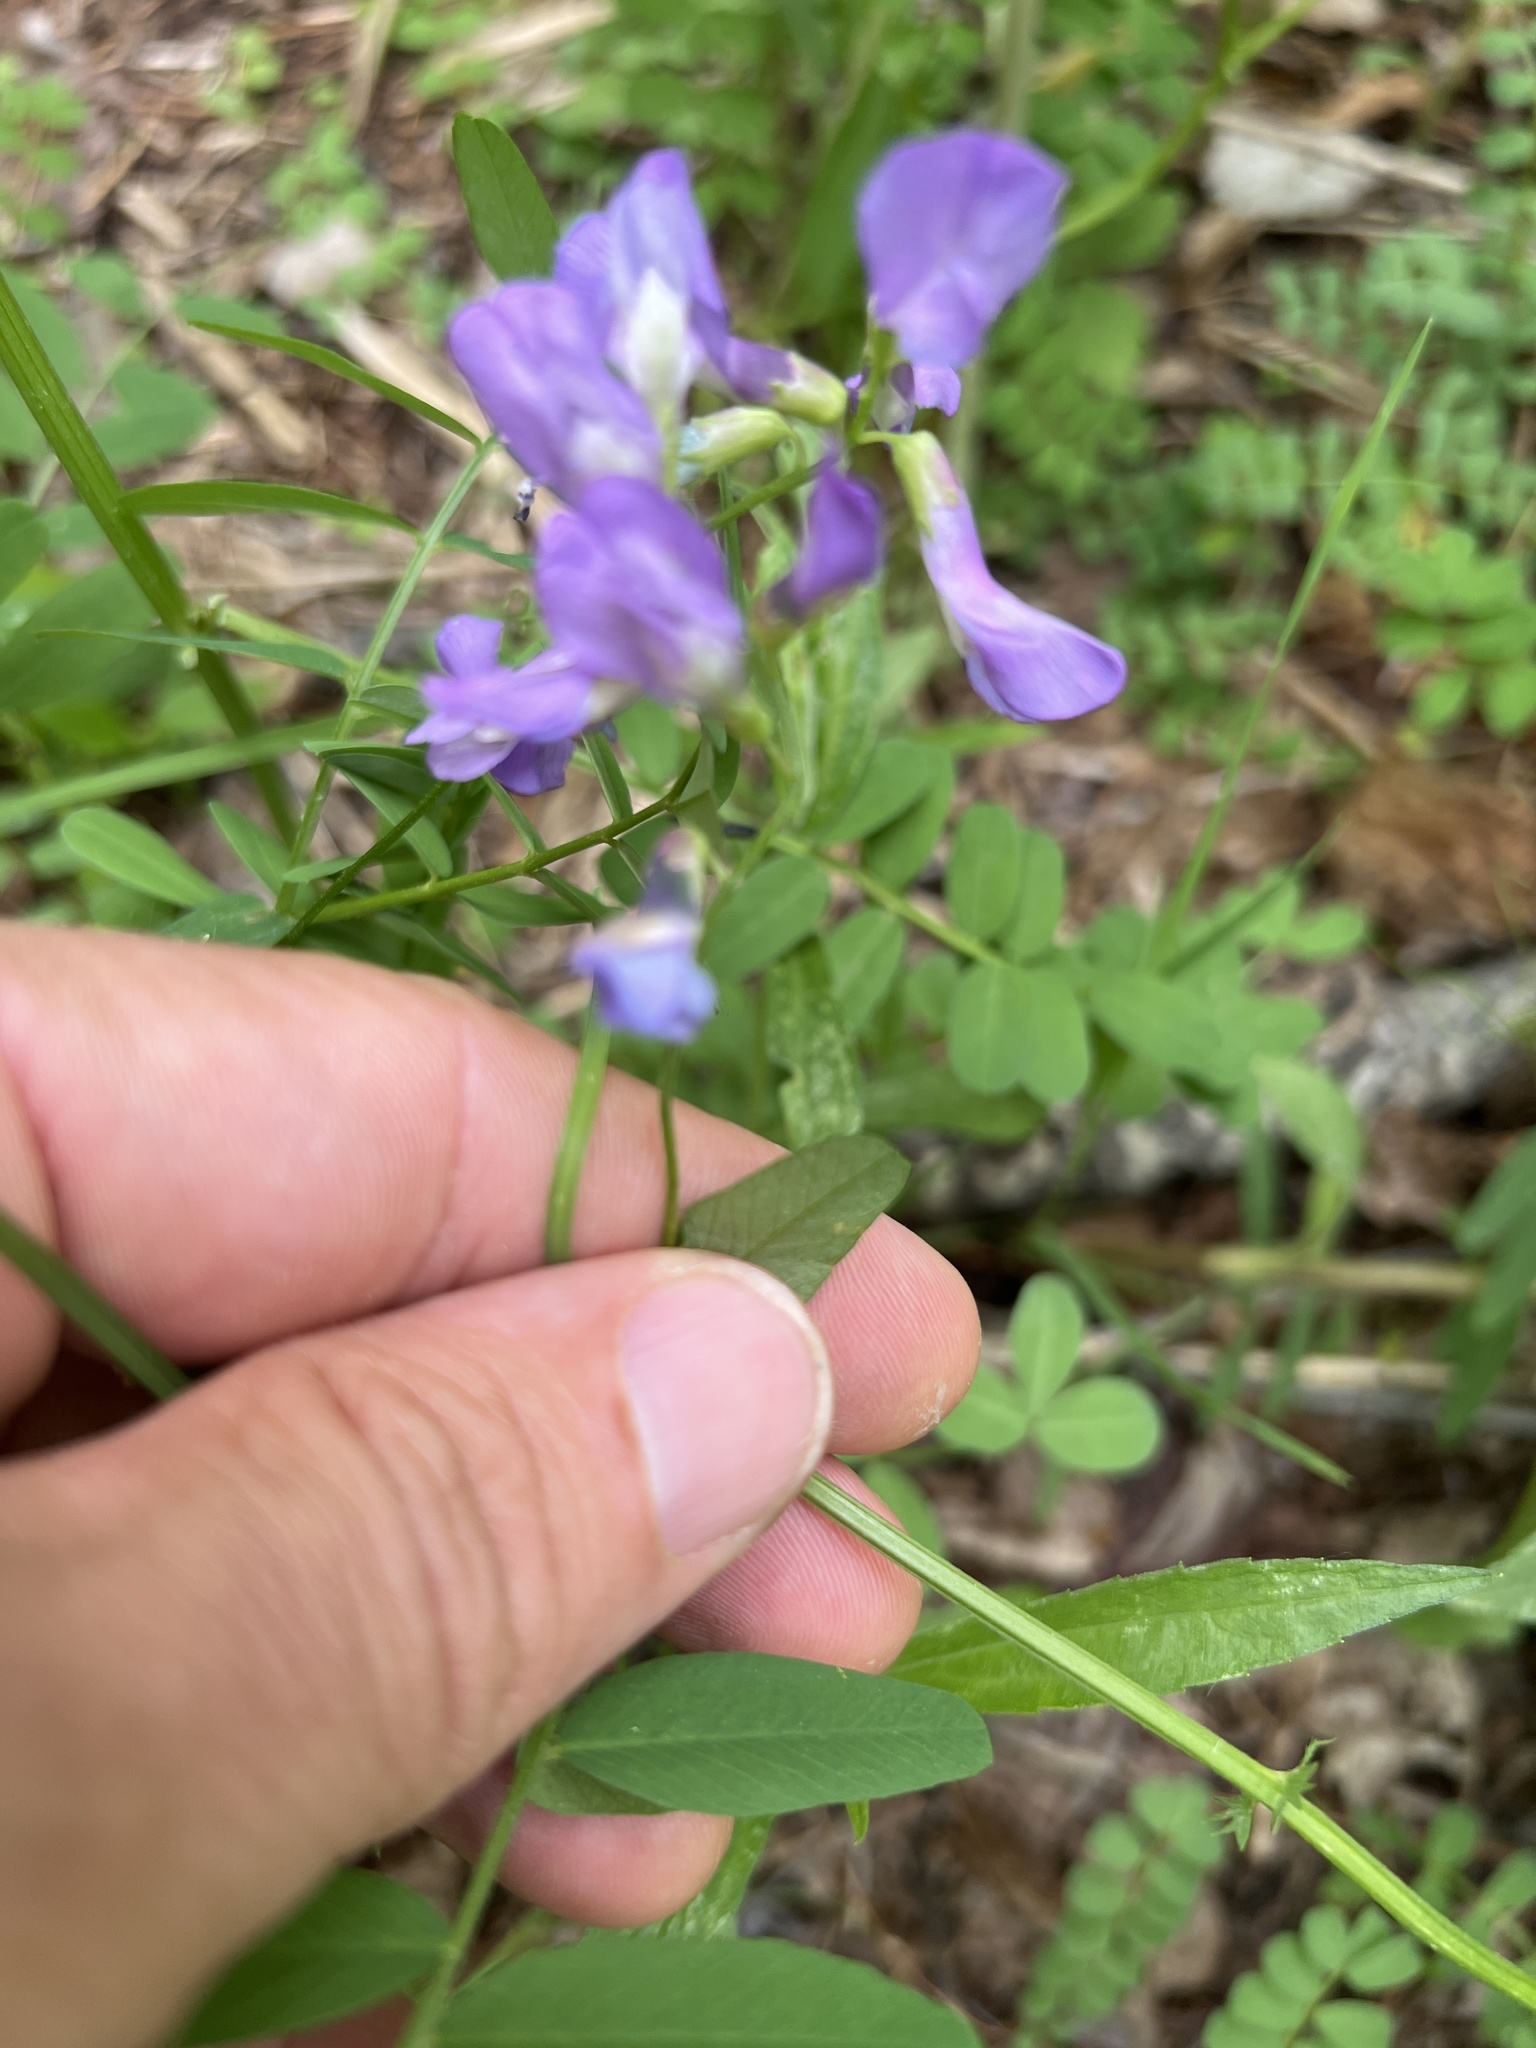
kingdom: Plantae
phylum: Tracheophyta
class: Magnoliopsida
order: Fabales
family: Fabaceae
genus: Vicia
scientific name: Vicia americana
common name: American vetch
